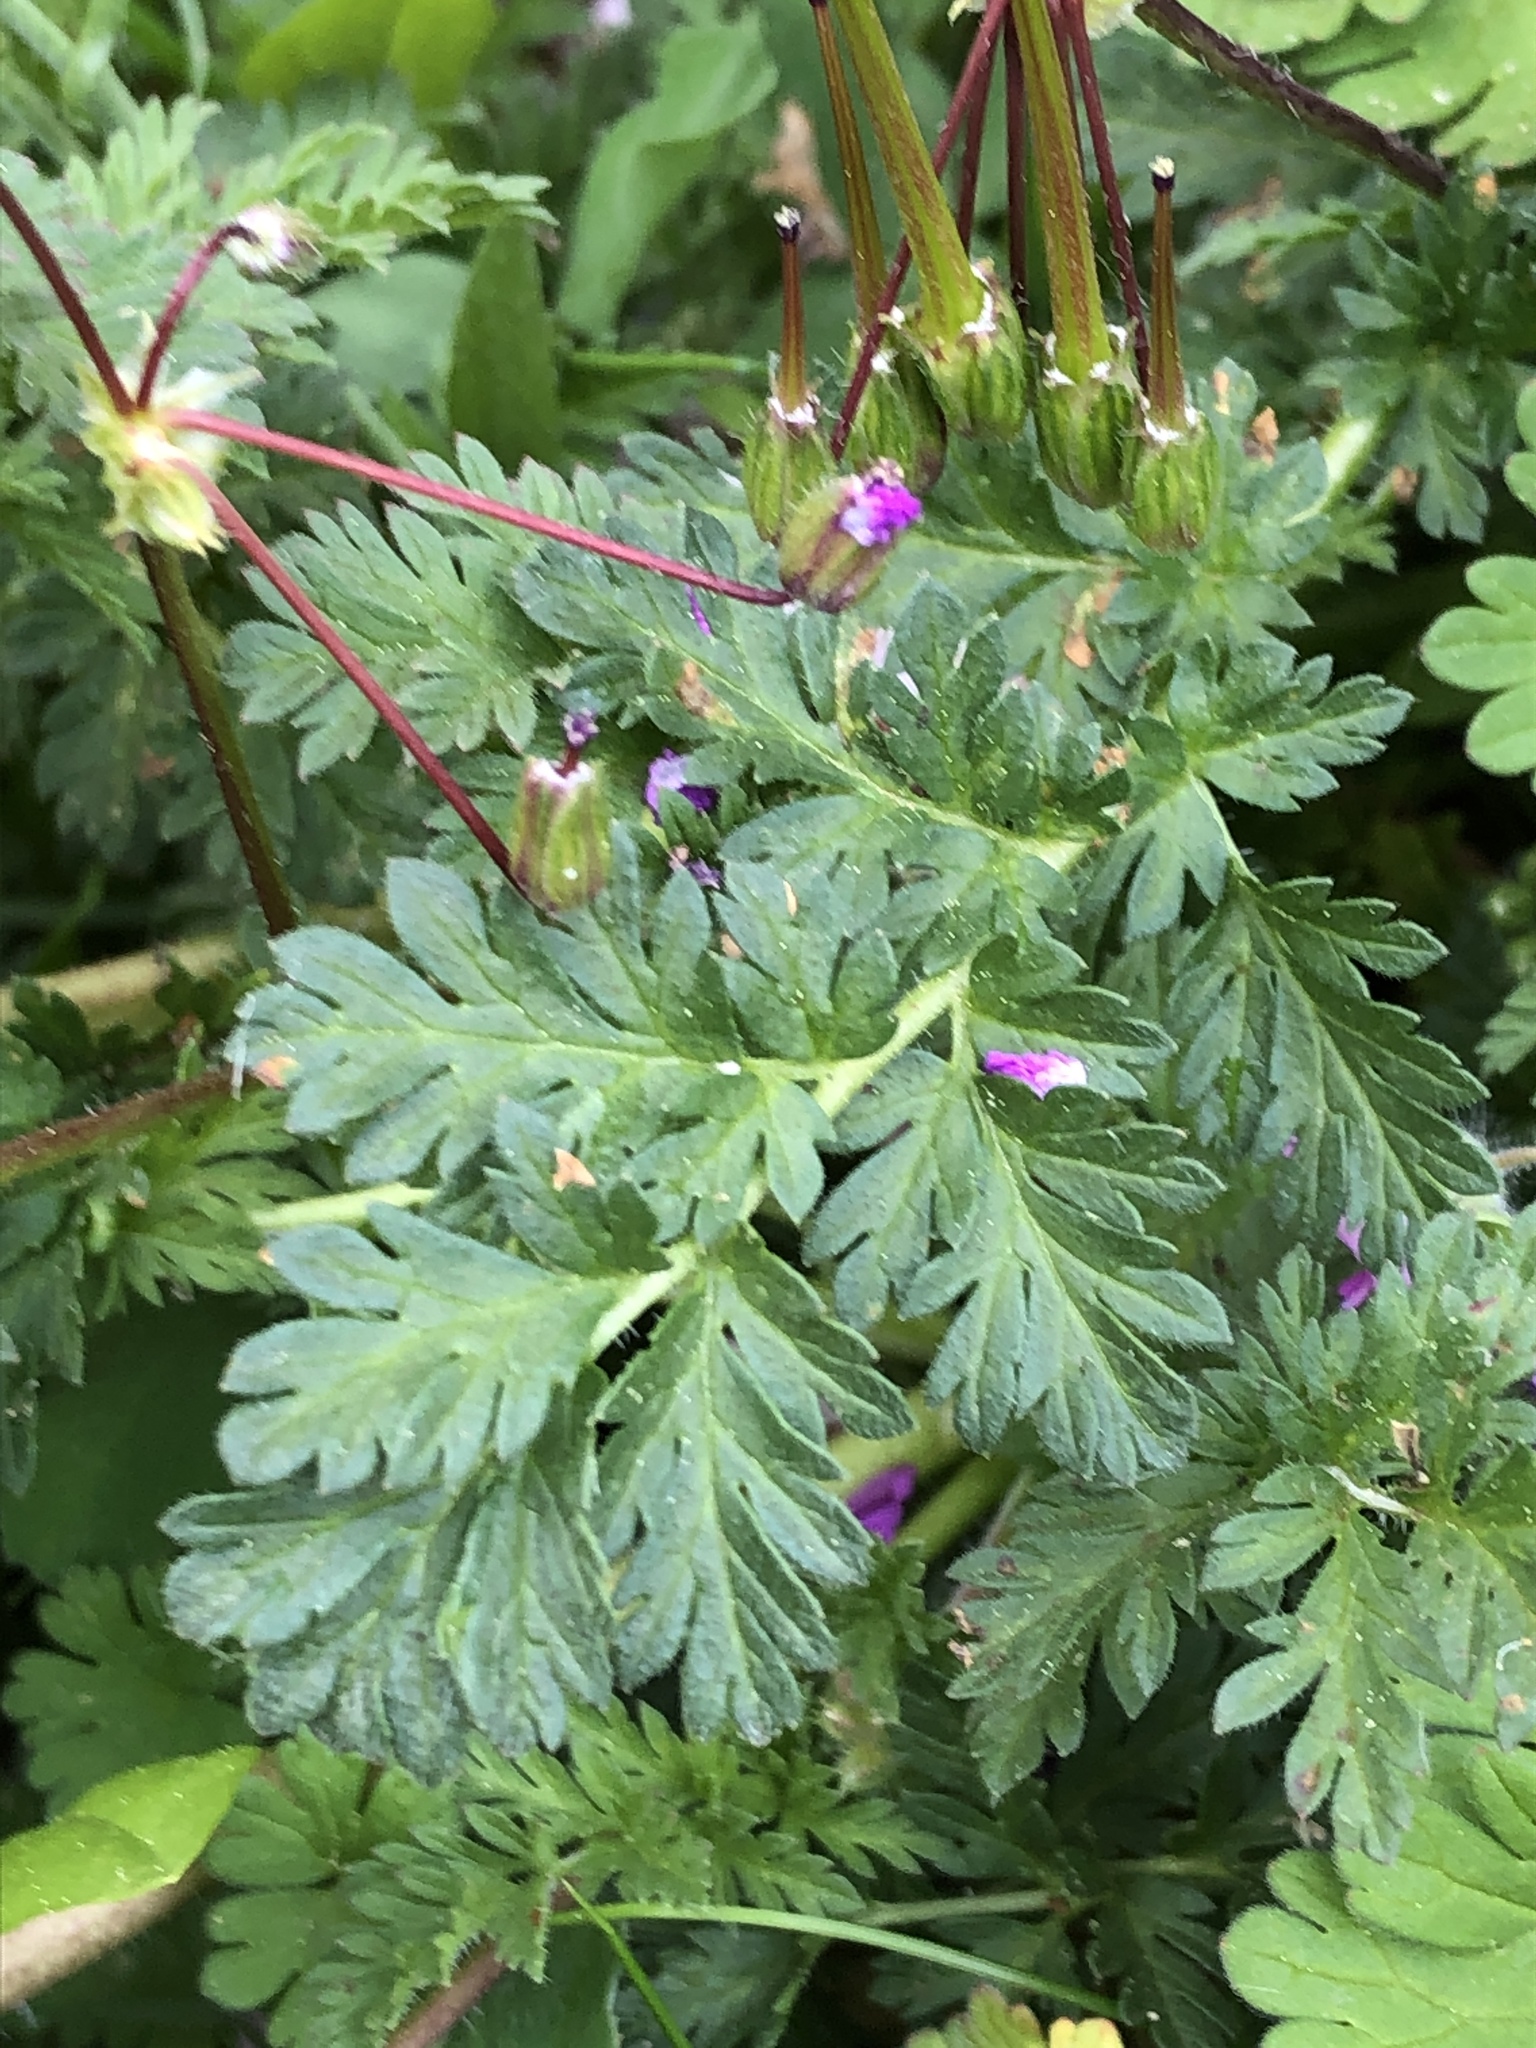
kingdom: Plantae
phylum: Tracheophyta
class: Magnoliopsida
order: Geraniales
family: Geraniaceae
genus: Erodium
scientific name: Erodium cicutarium
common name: Common stork's-bill
